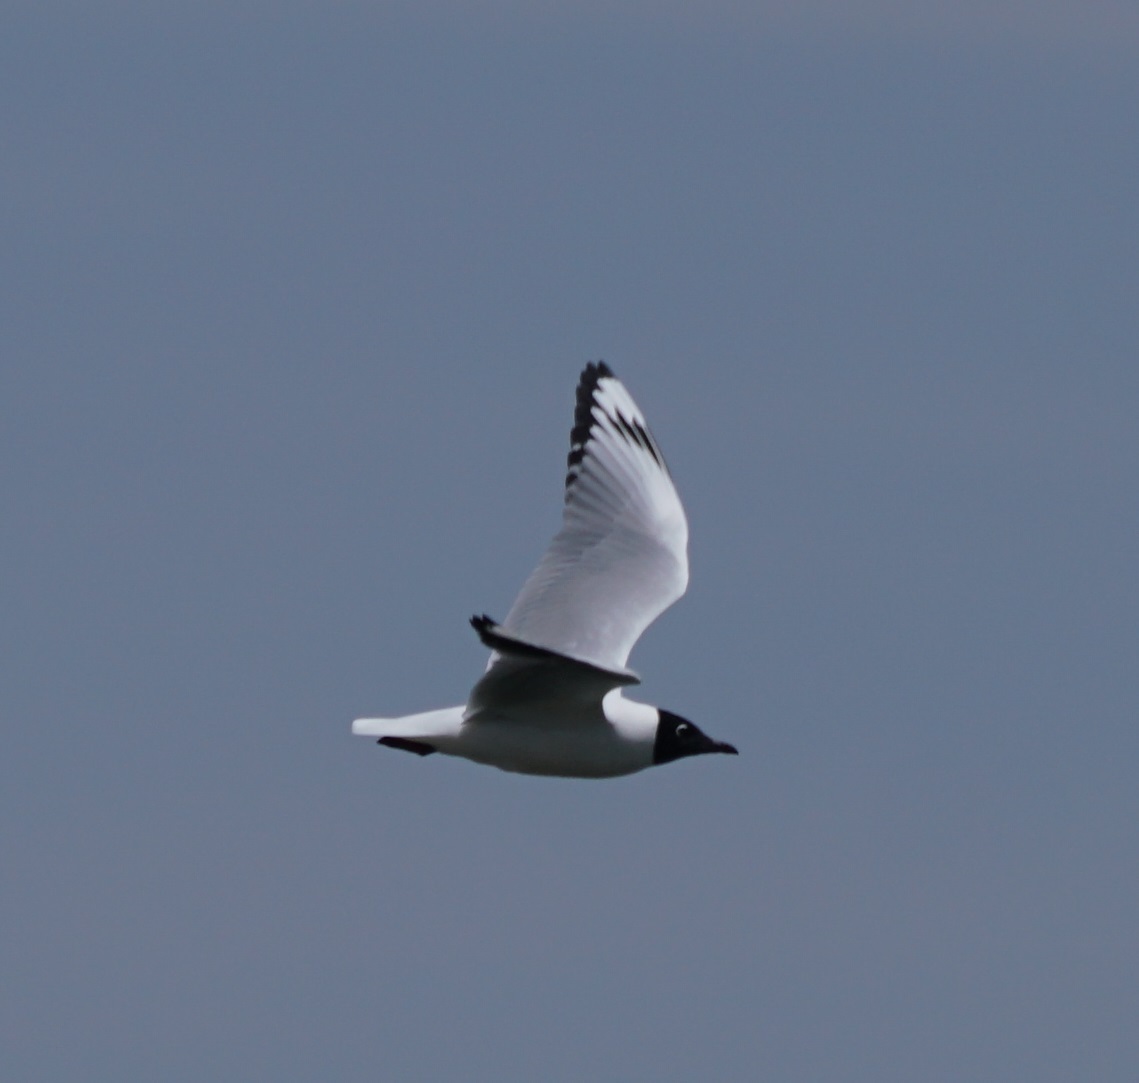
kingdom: Animalia
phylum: Chordata
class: Aves
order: Charadriiformes
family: Laridae
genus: Chroicocephalus
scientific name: Chroicocephalus serranus
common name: Andean gull
